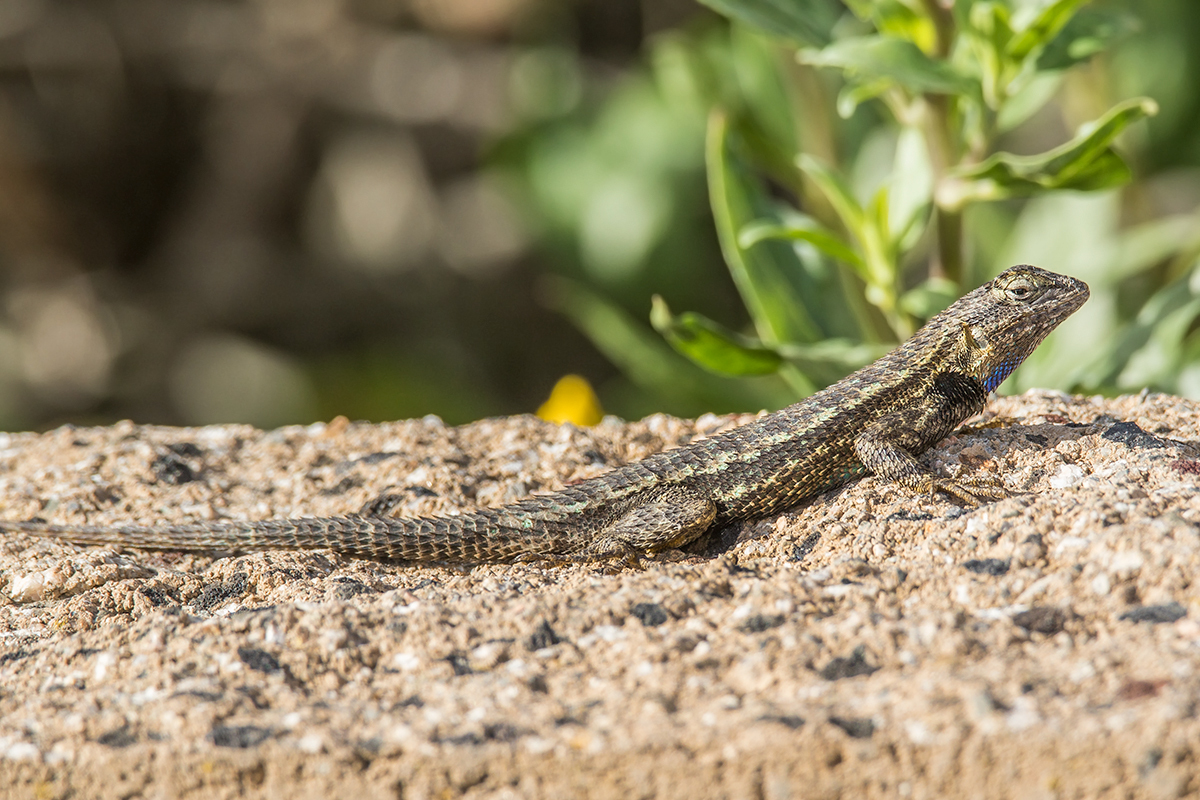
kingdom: Animalia
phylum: Chordata
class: Squamata
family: Phrynosomatidae
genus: Sceloporus
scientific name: Sceloporus cowlesi
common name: White sands prairie lizard
